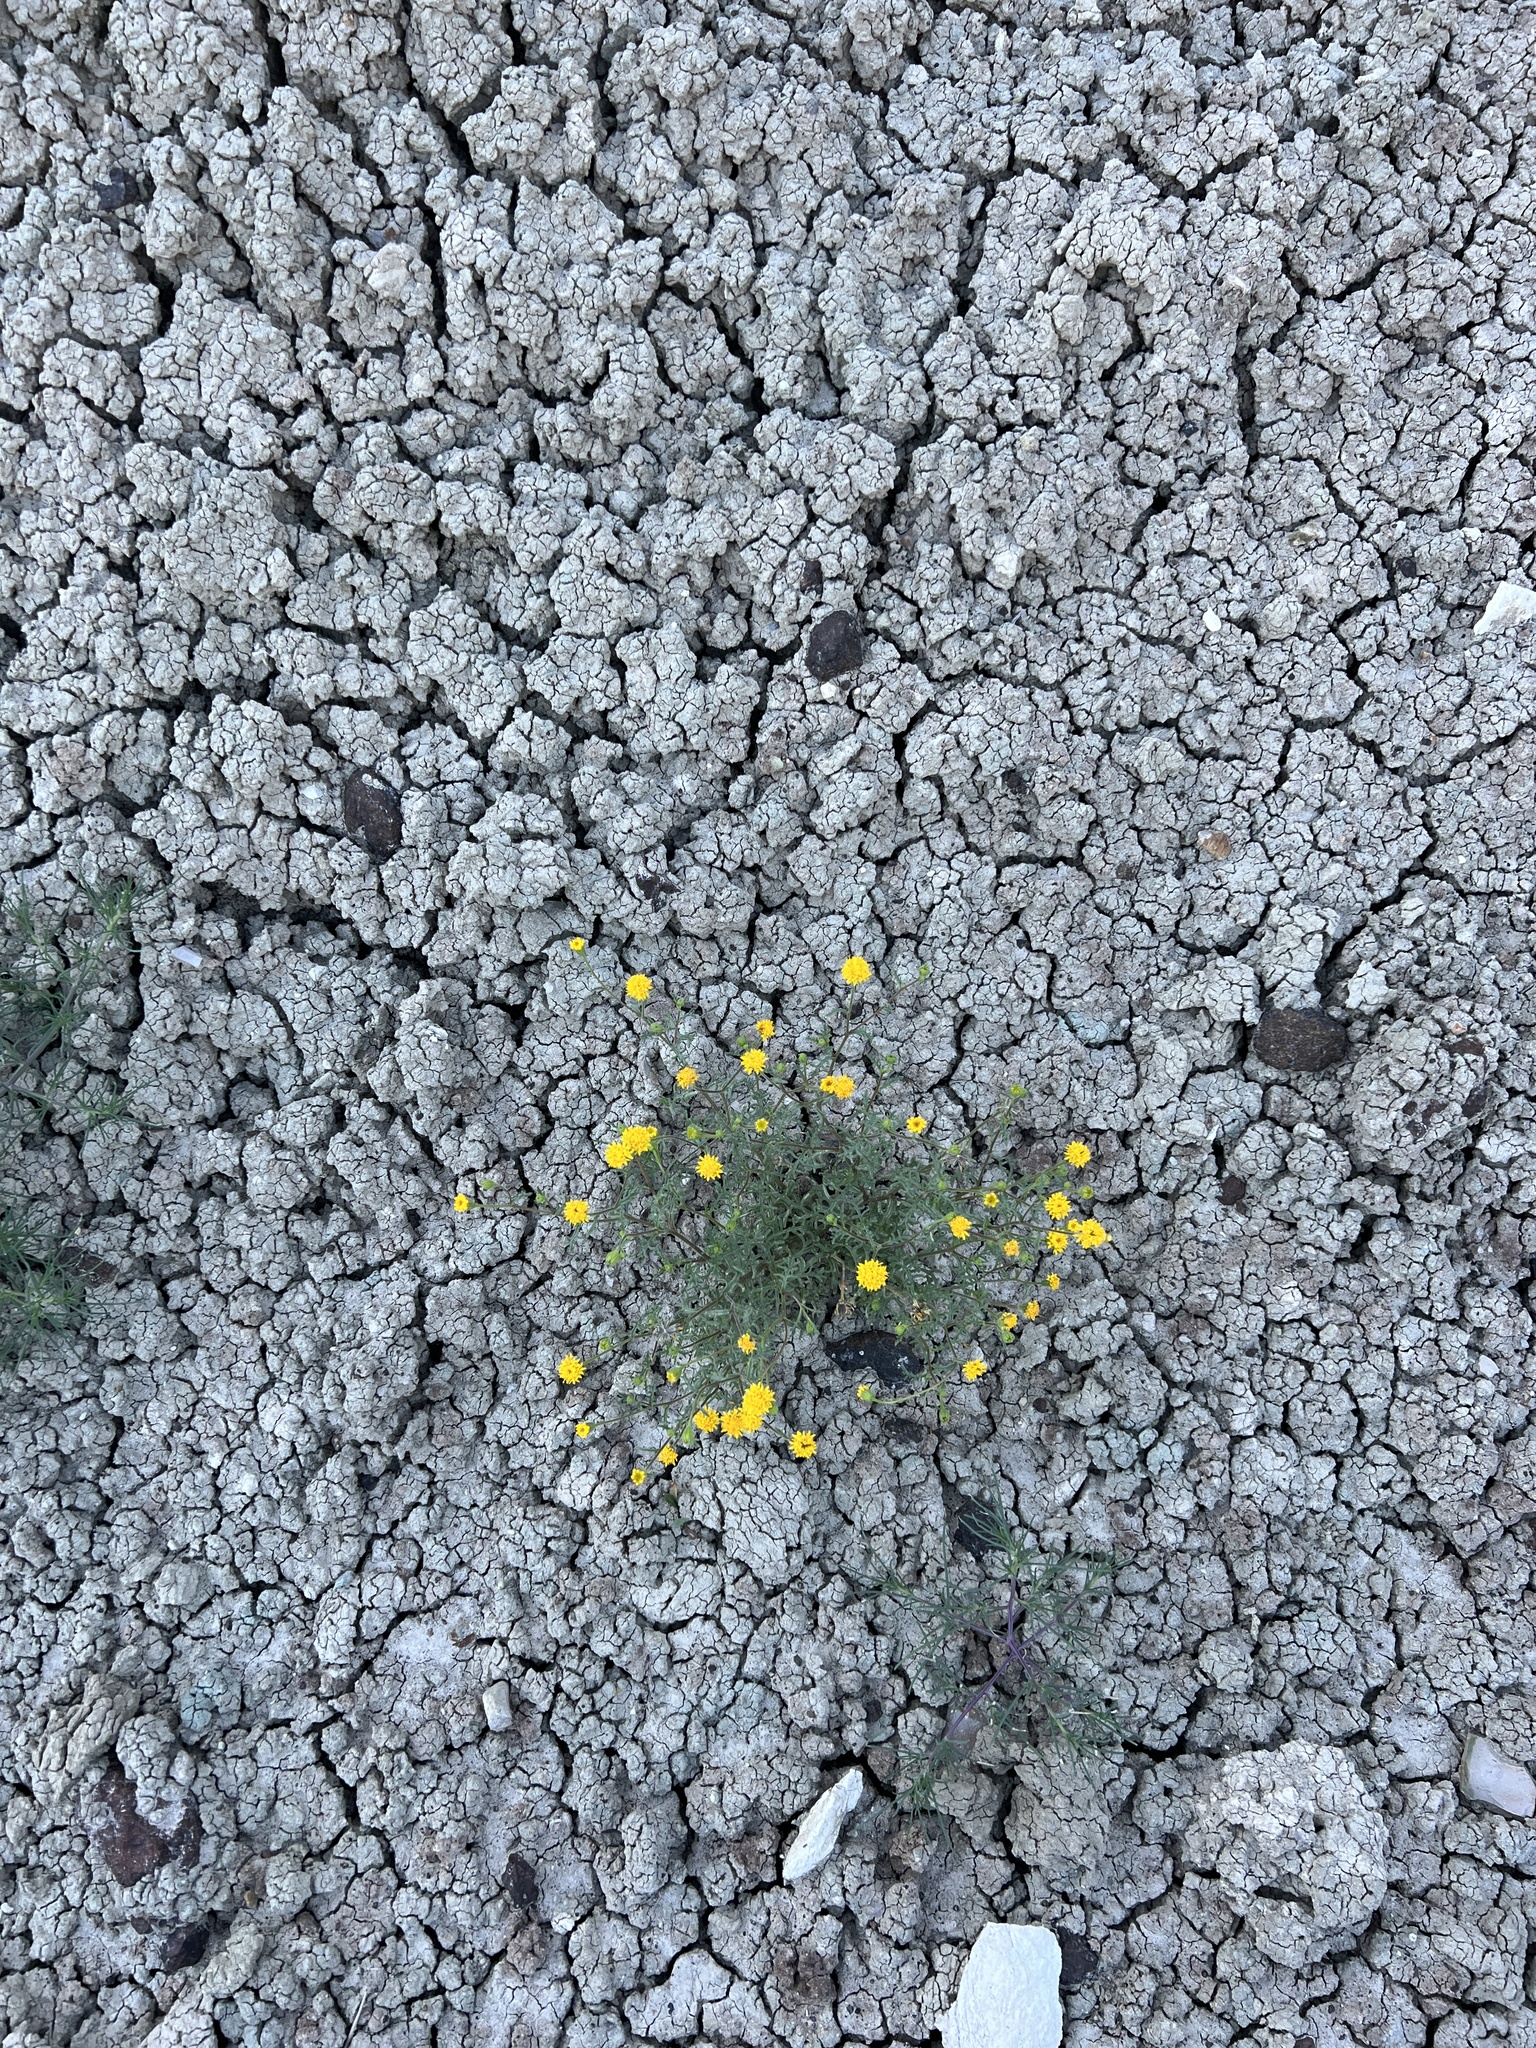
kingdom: Plantae
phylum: Tracheophyta
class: Magnoliopsida
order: Asterales
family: Asteraceae
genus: Chaenactis
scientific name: Chaenactis nevii
